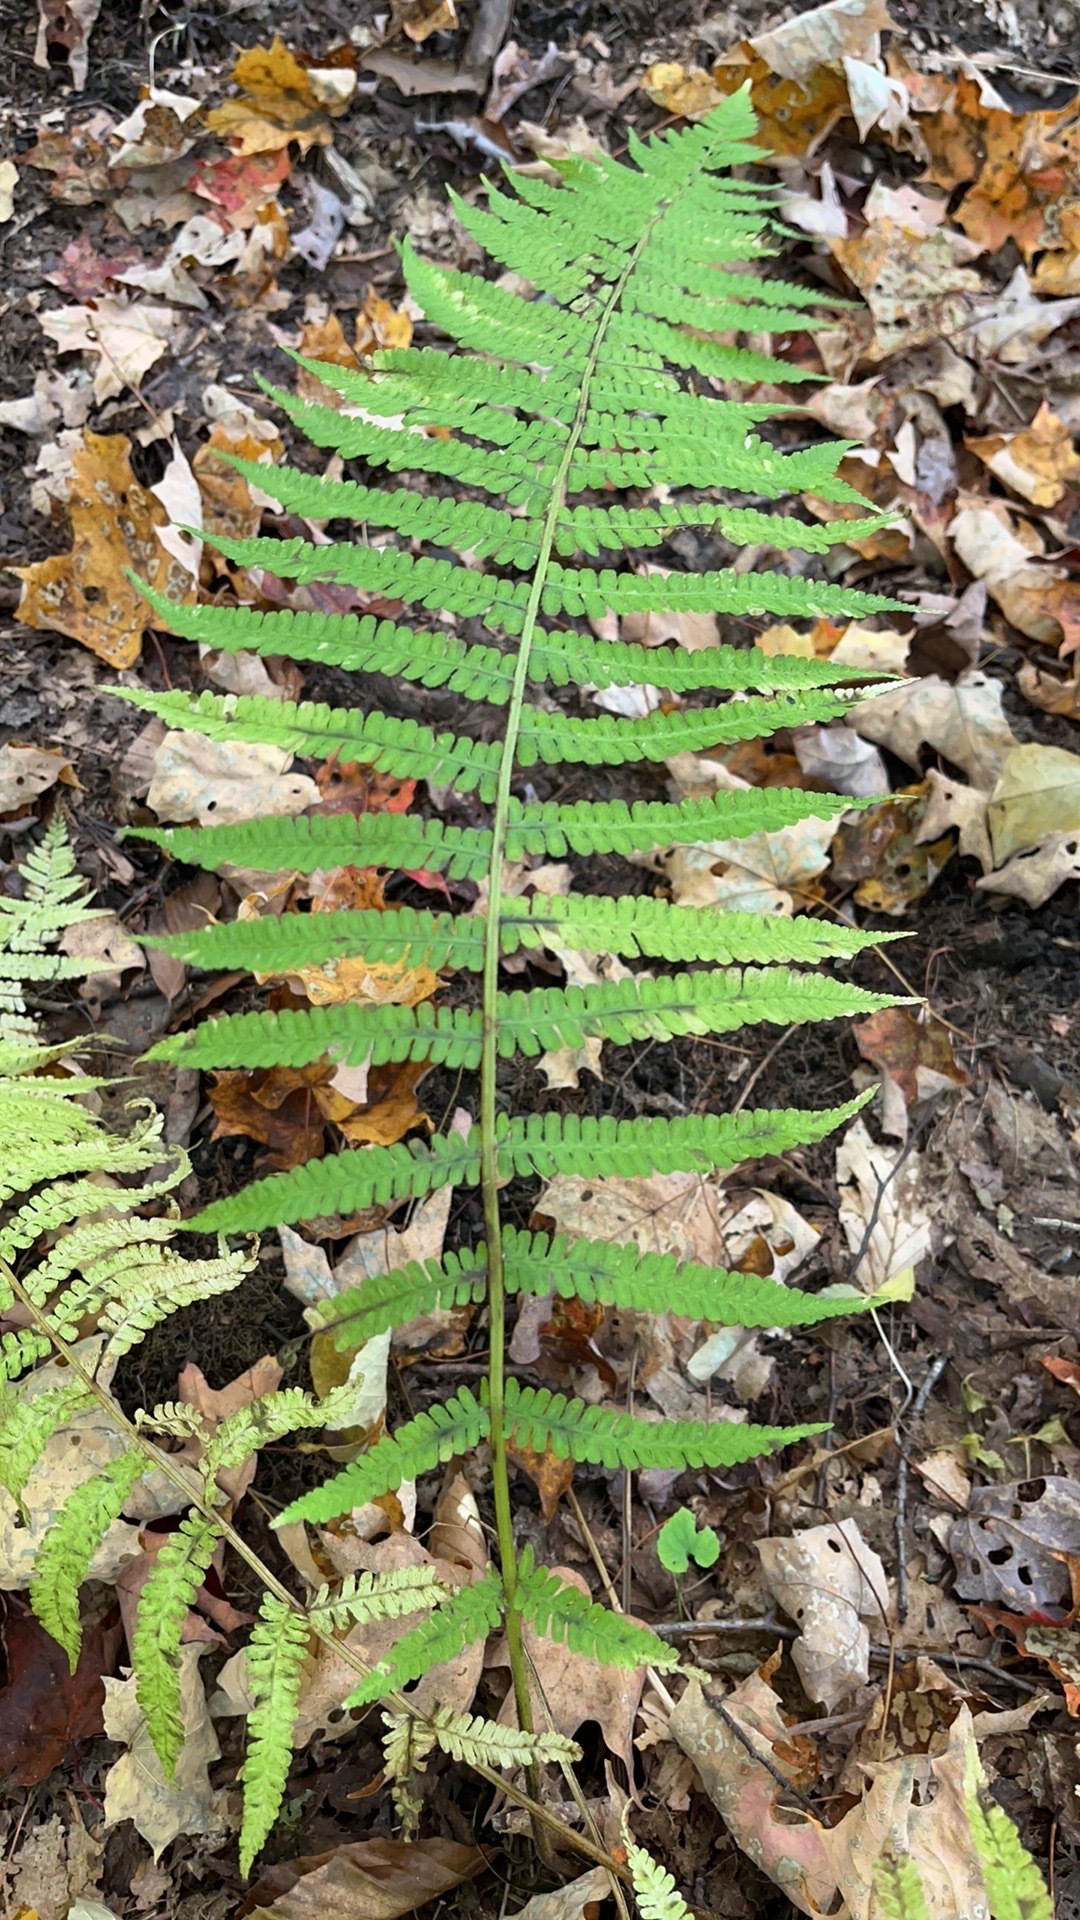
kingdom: Plantae
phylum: Tracheophyta
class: Polypodiopsida
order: Polypodiales
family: Athyriaceae
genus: Deparia
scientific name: Deparia acrostichoides
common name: Silver false spleenwort
